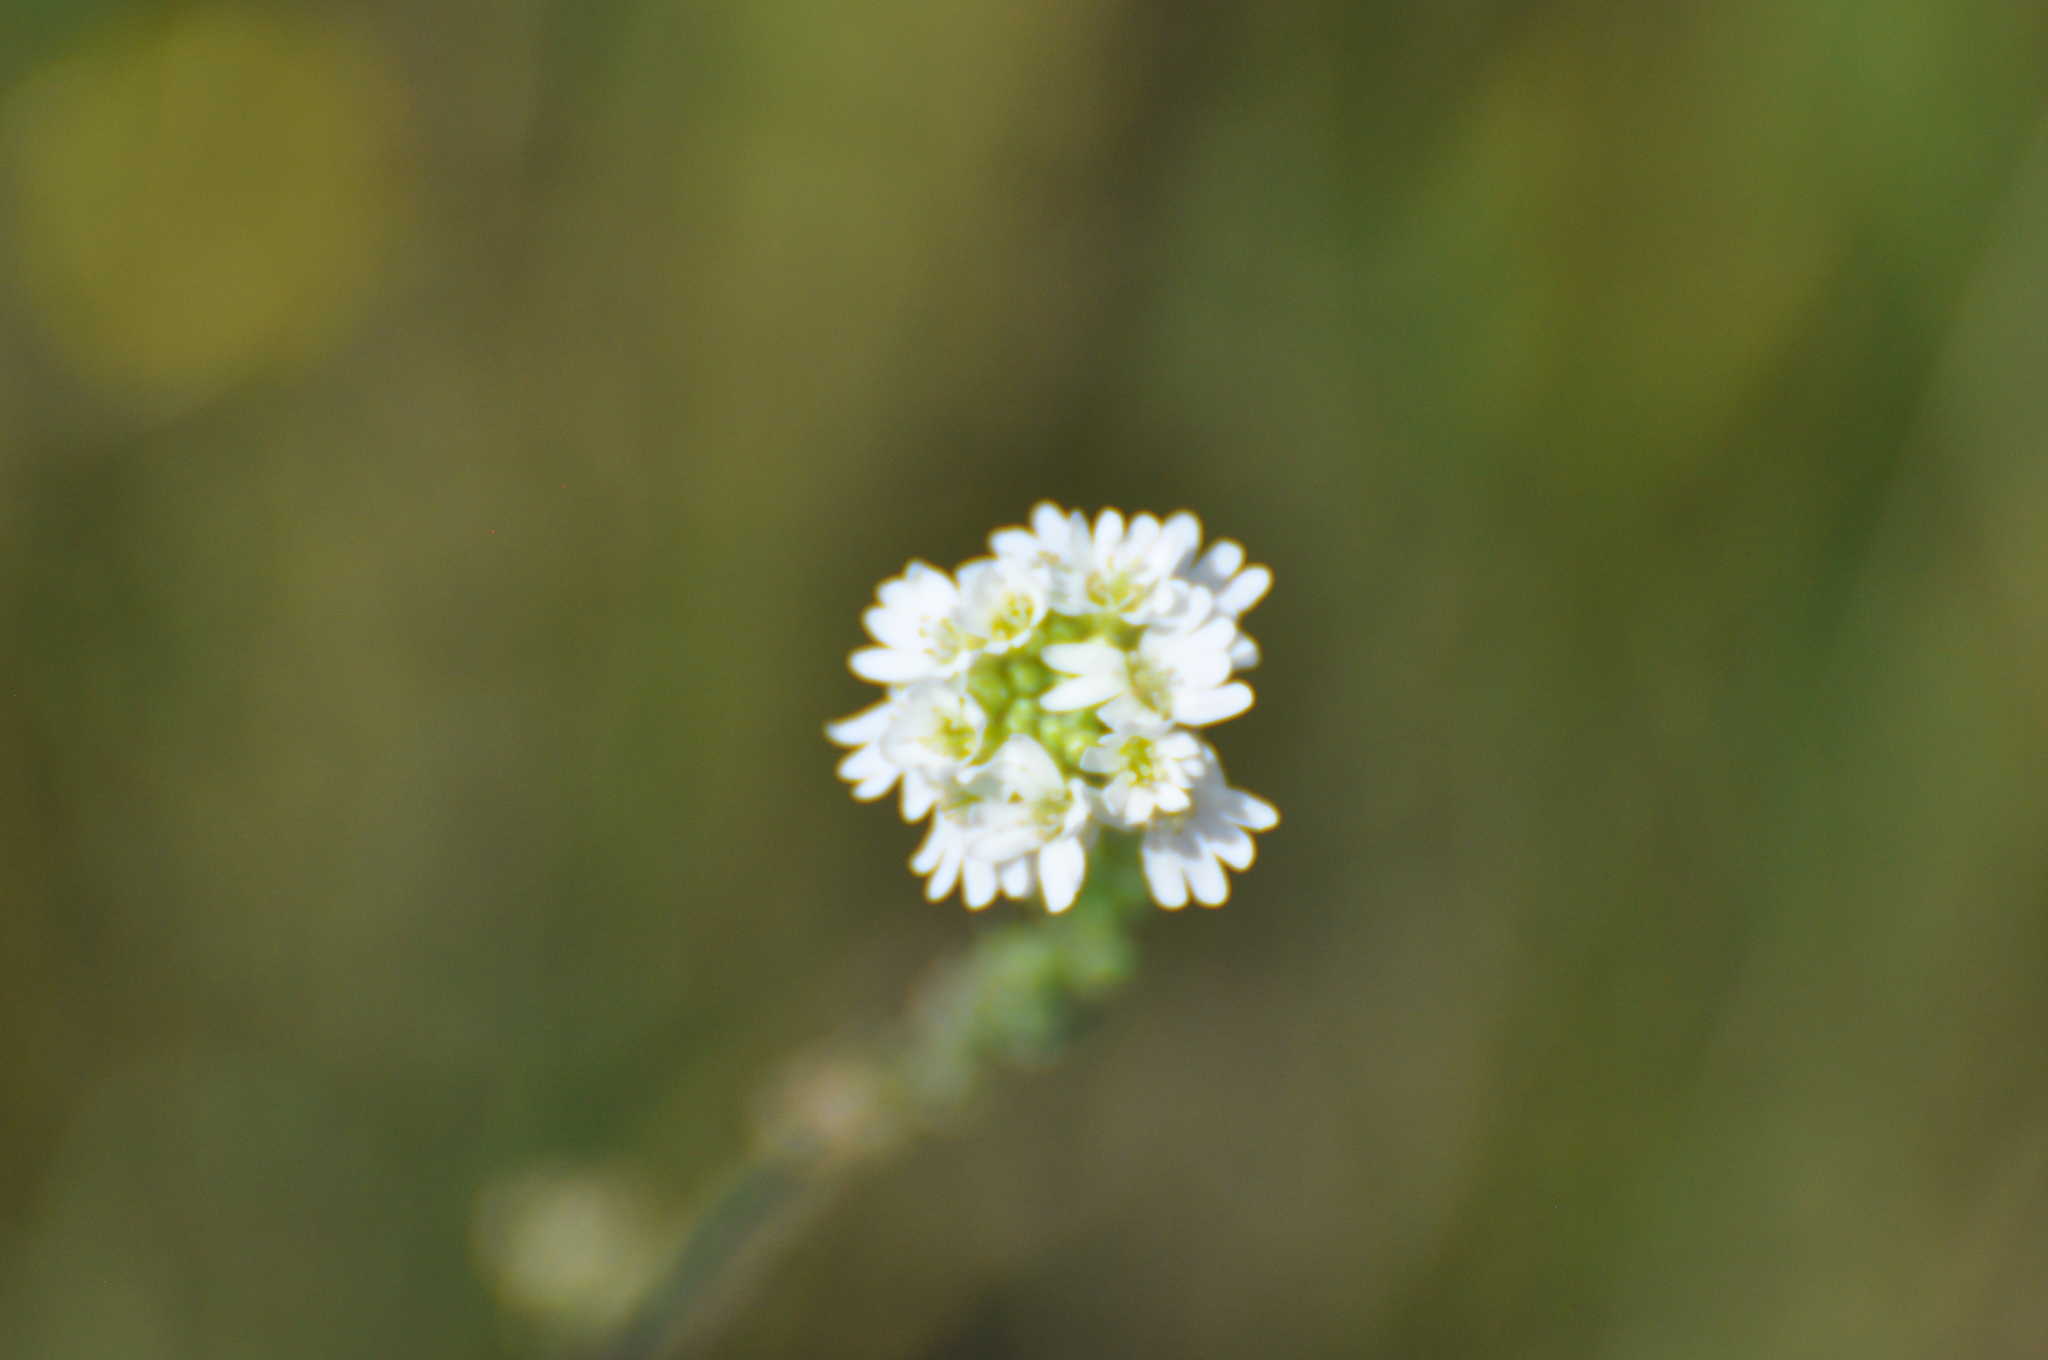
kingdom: Plantae
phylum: Tracheophyta
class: Magnoliopsida
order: Brassicales
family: Brassicaceae
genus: Berteroa
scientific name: Berteroa incana
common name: Hoary alison
